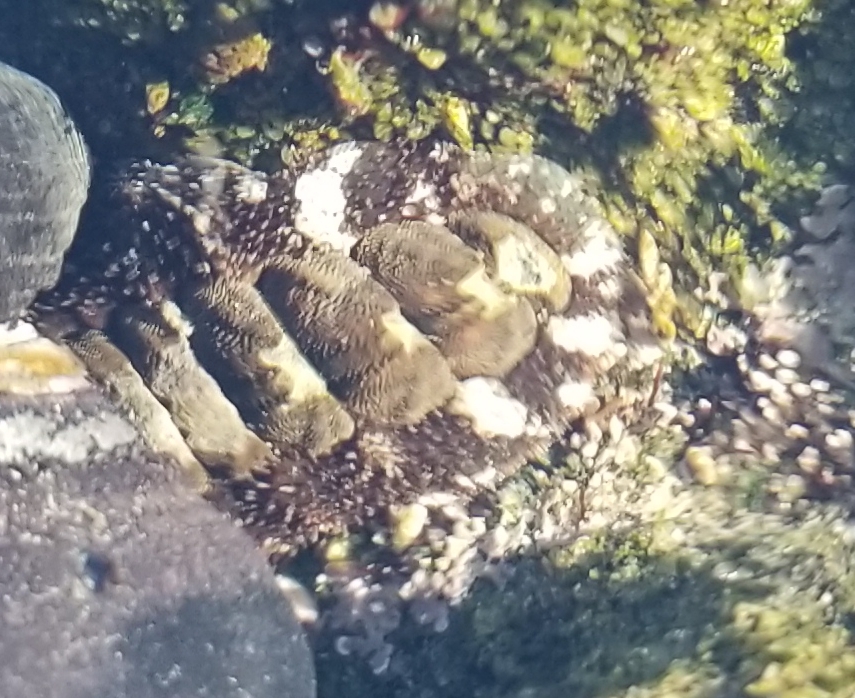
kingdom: Animalia
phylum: Mollusca
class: Polyplacophora
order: Chitonida
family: Tonicellidae
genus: Nuttallina
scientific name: Nuttallina californica
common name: California nuttall chiton
